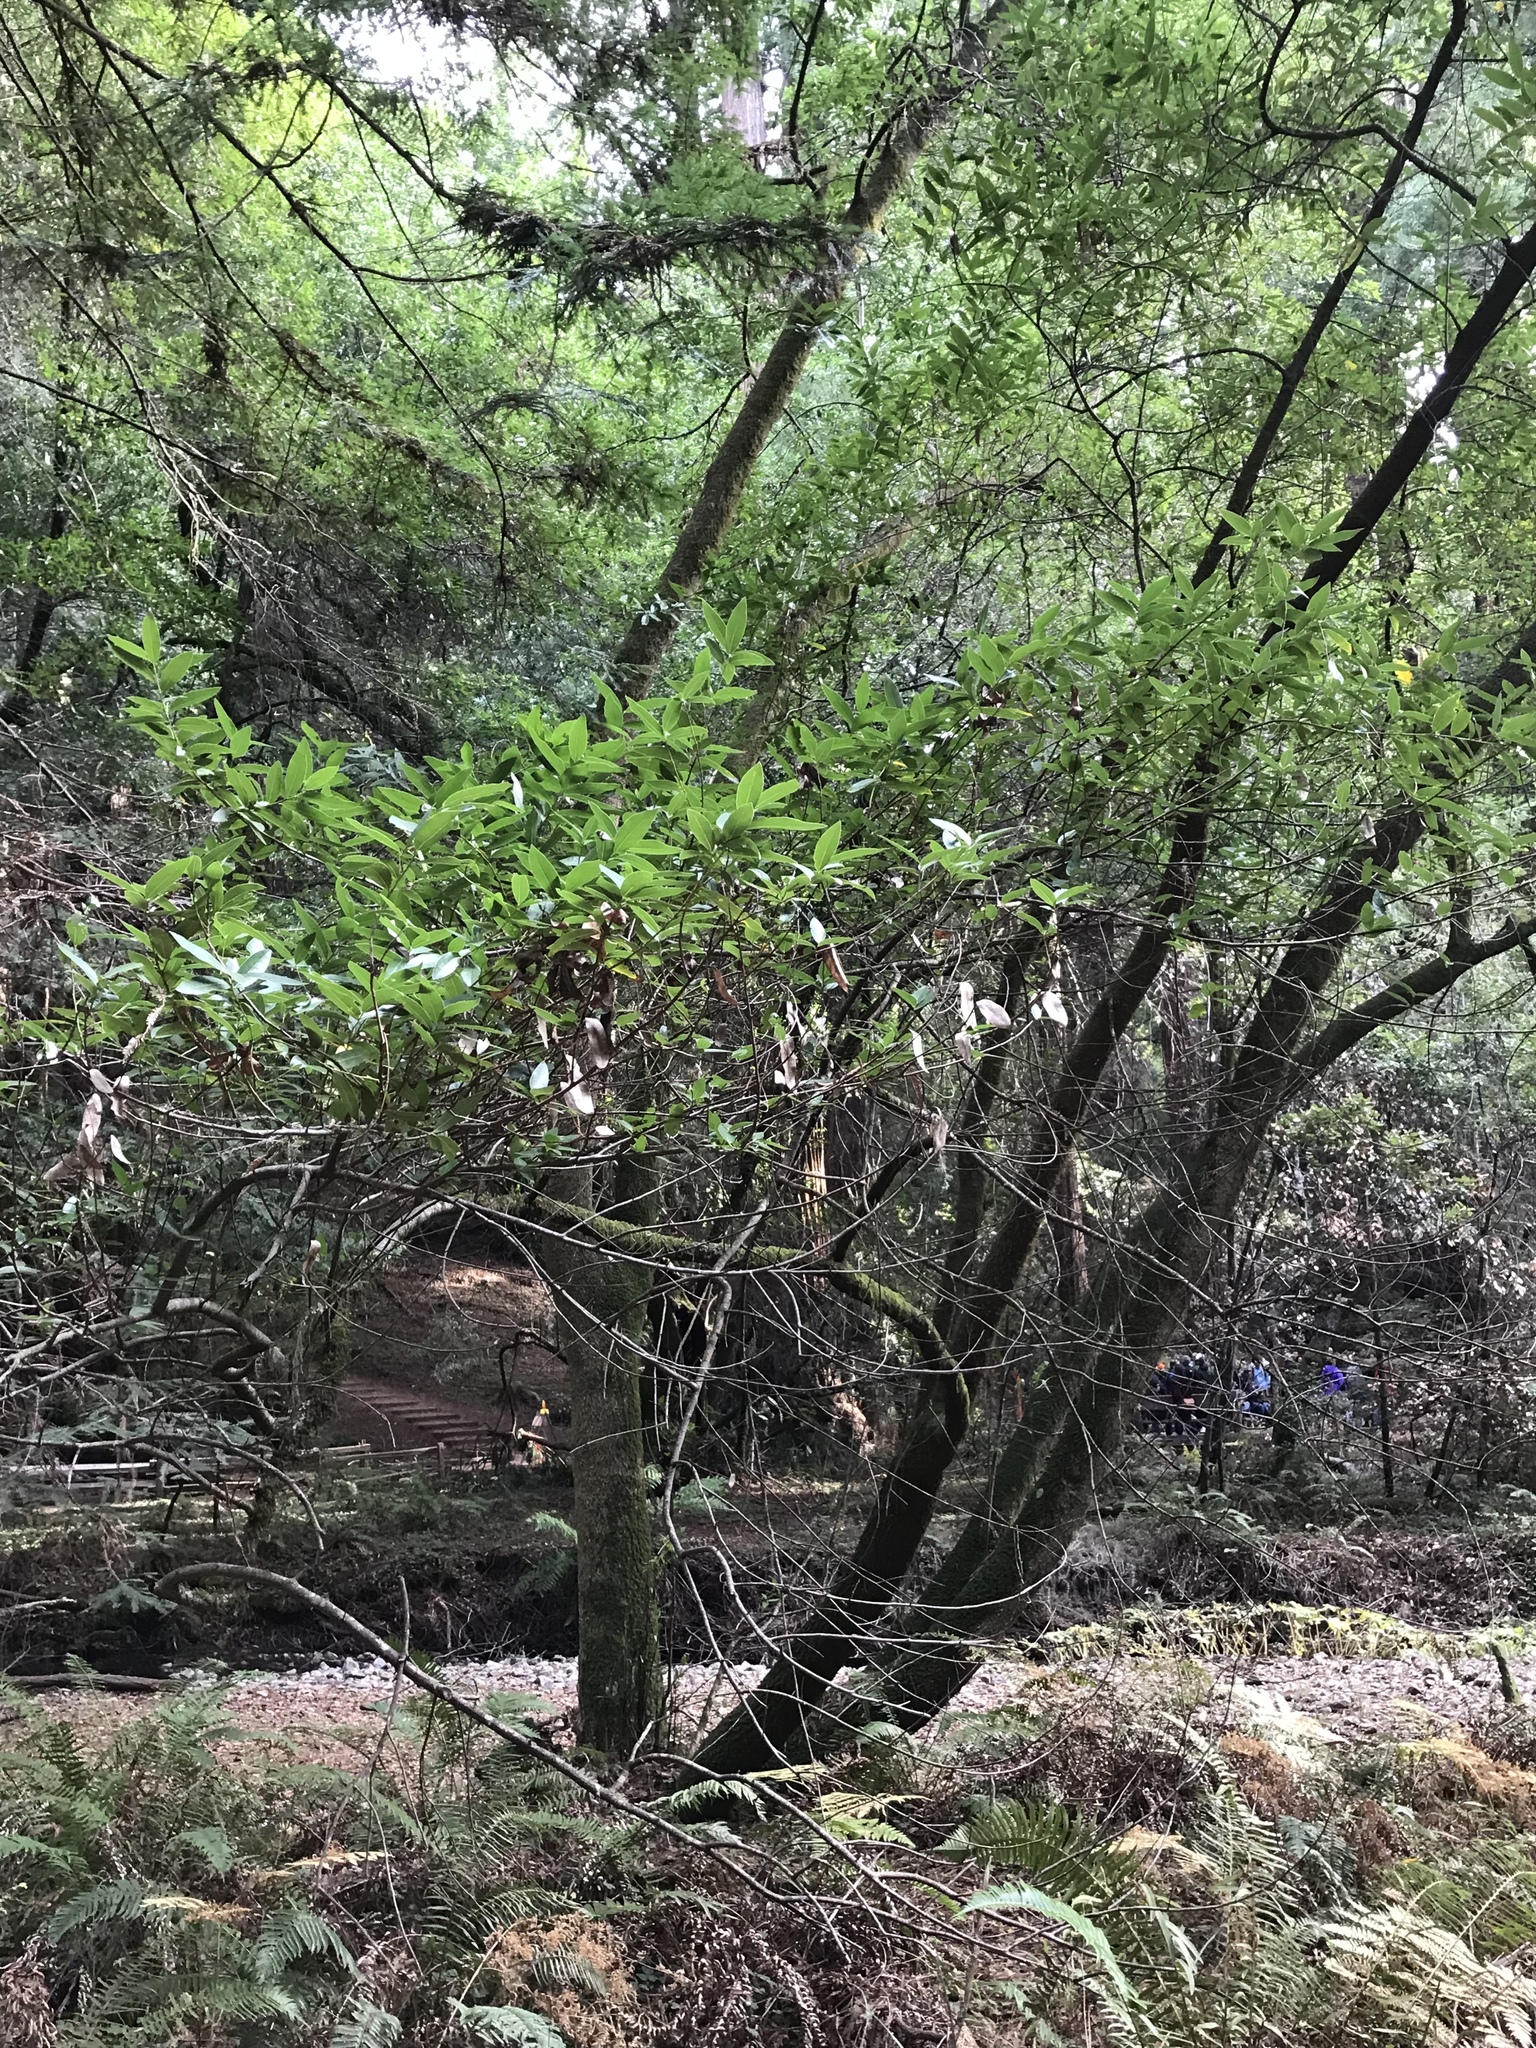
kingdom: Plantae
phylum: Tracheophyta
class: Magnoliopsida
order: Laurales
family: Lauraceae
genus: Umbellularia
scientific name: Umbellularia californica
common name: California bay
